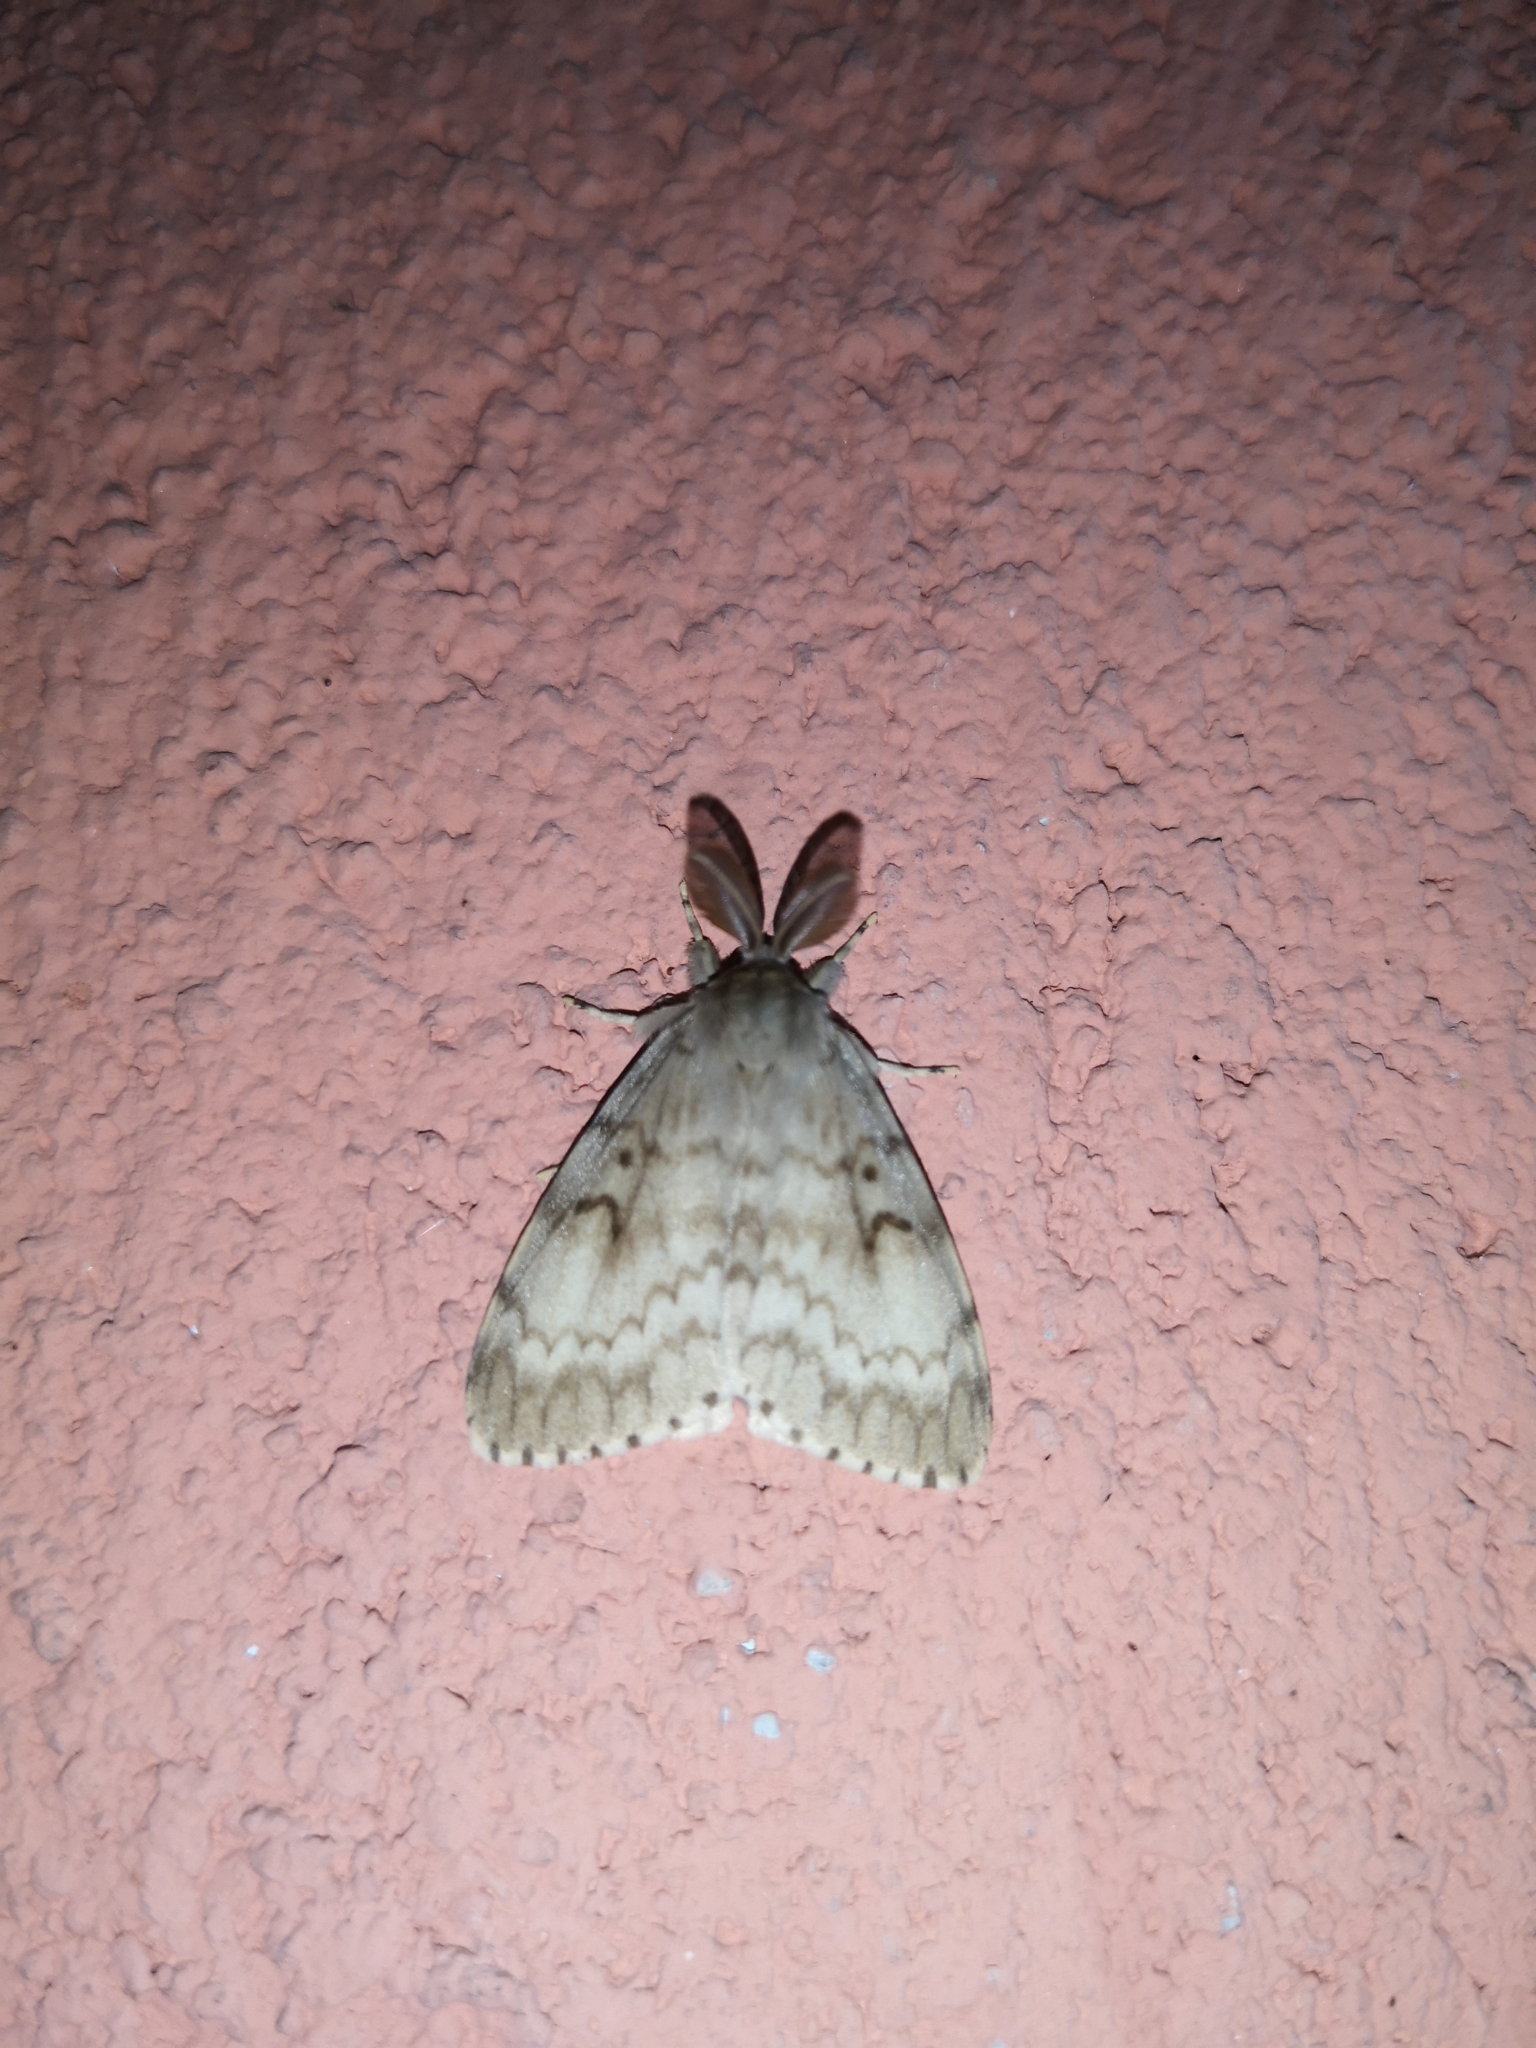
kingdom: Animalia
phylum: Arthropoda
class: Insecta
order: Lepidoptera
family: Erebidae
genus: Lymantria
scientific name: Lymantria dispar
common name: Gypsy moth
